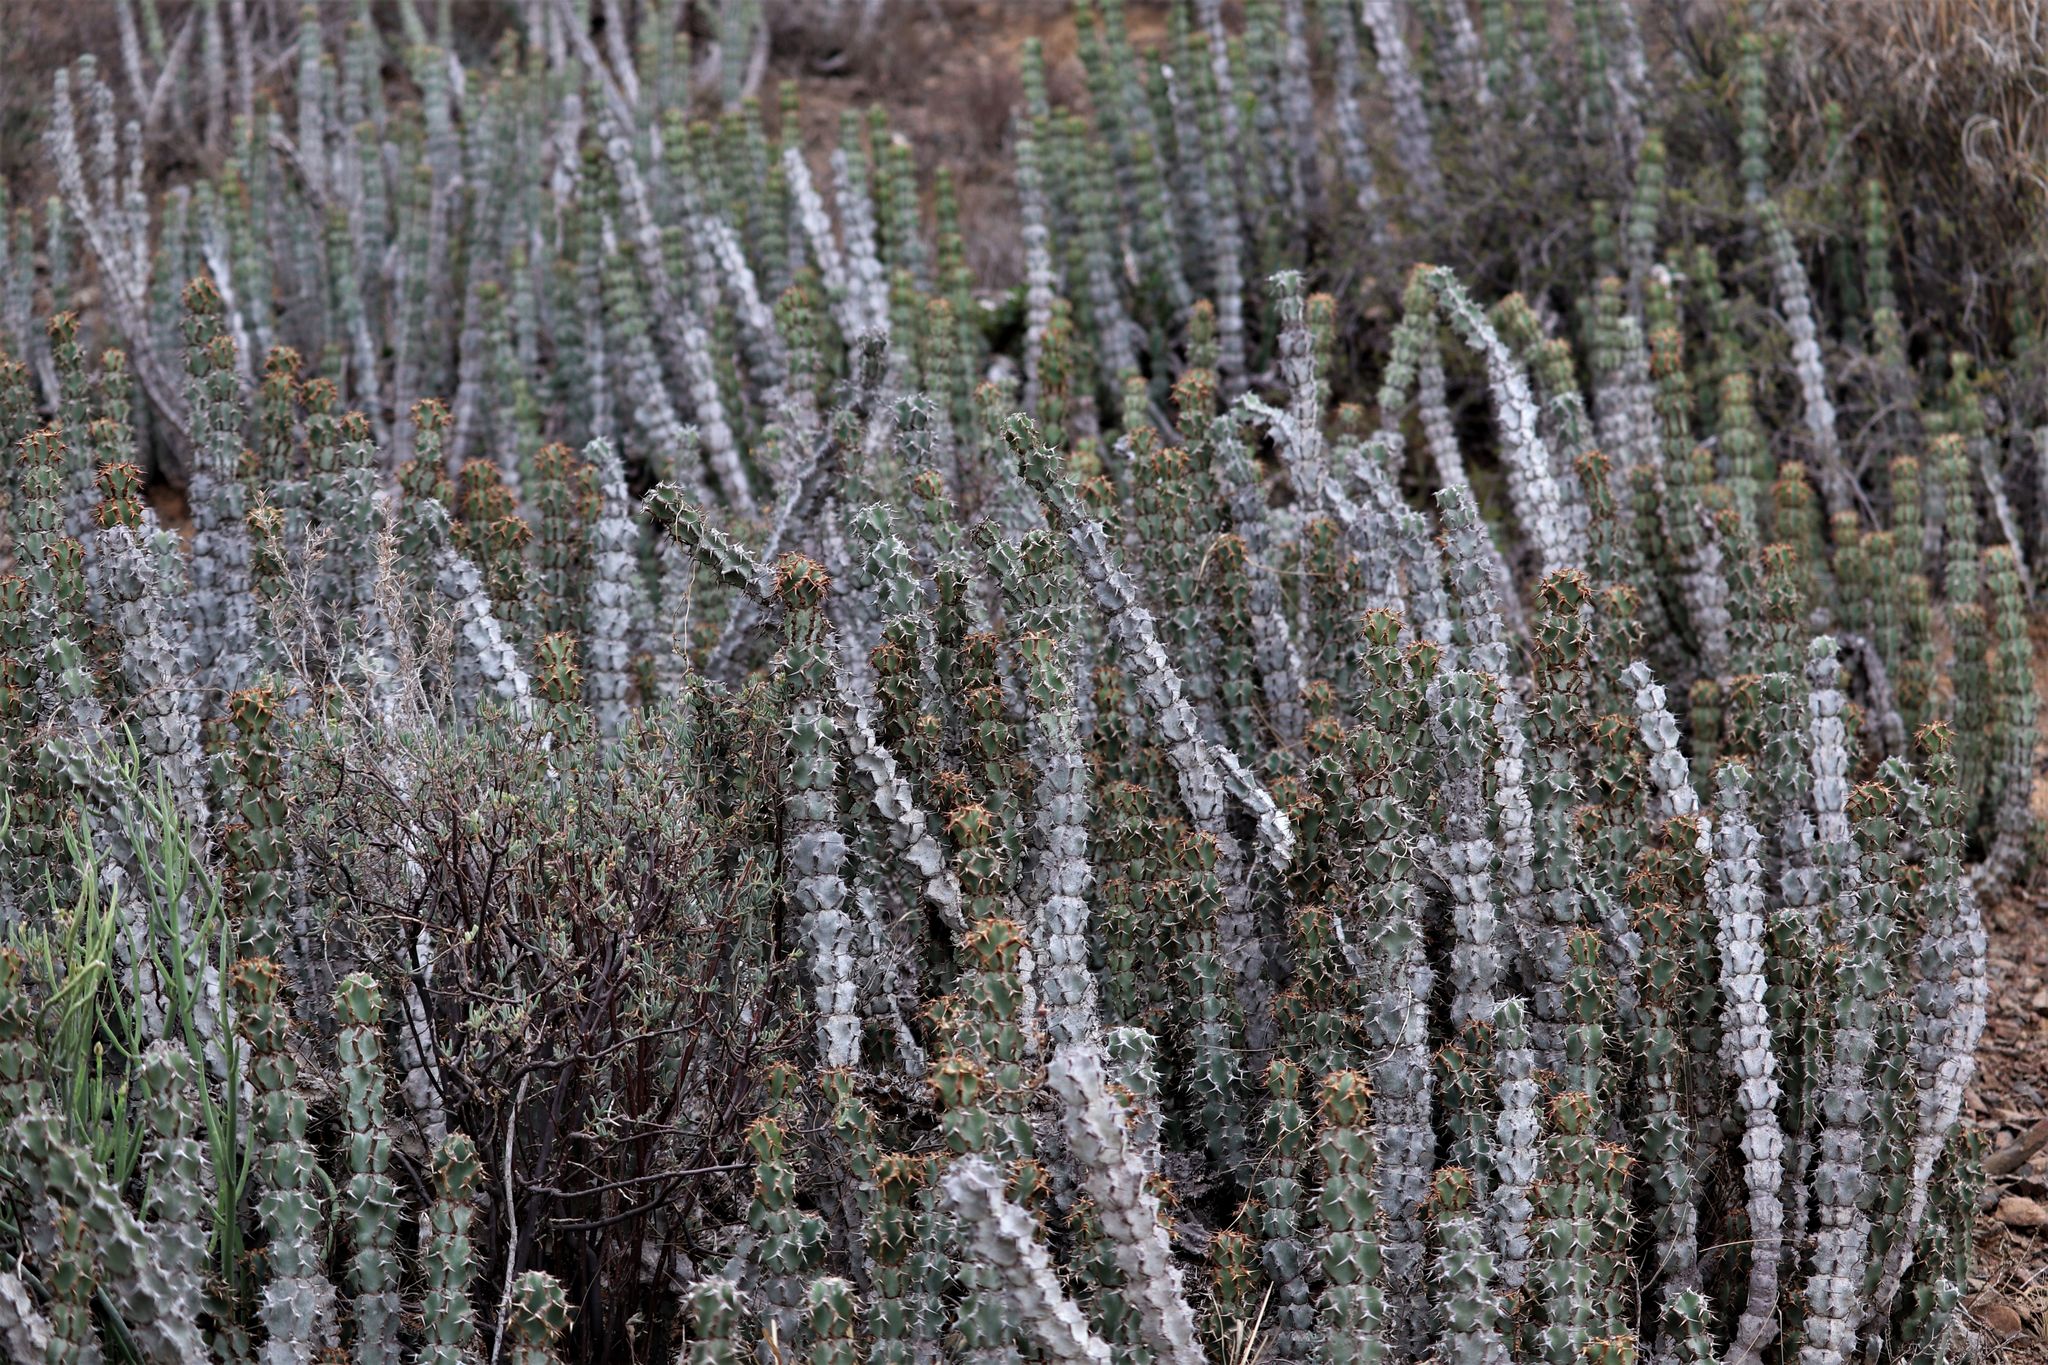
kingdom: Plantae
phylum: Tracheophyta
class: Magnoliopsida
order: Malpighiales
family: Euphorbiaceae
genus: Euphorbia
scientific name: Euphorbia radyeri
